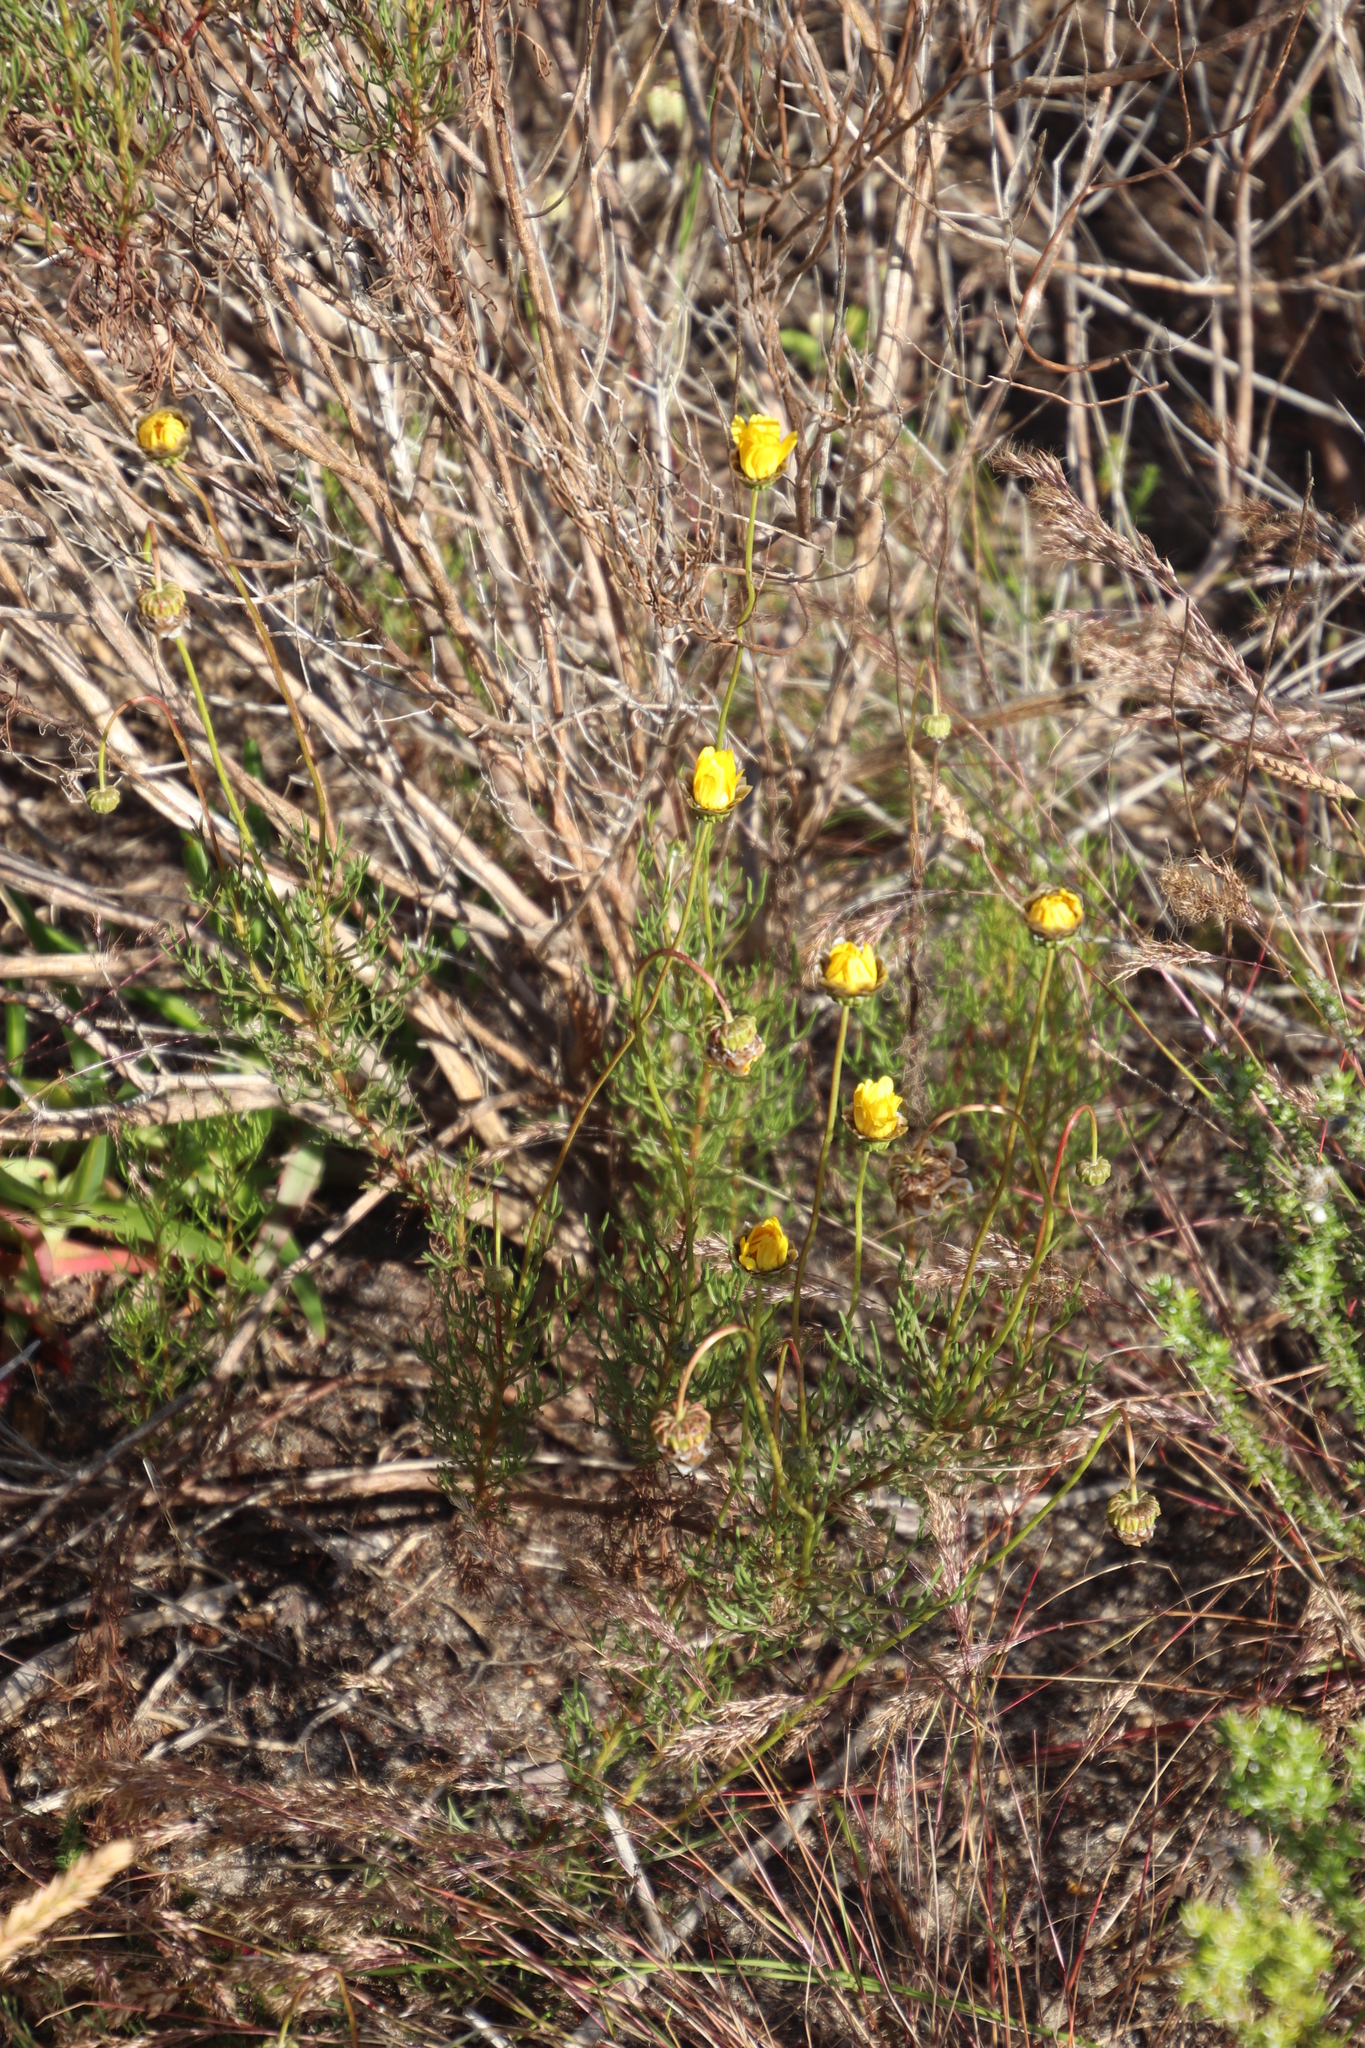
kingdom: Plantae
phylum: Tracheophyta
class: Magnoliopsida
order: Asterales
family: Asteraceae
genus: Ursinia
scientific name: Ursinia anthemoides
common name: Ursinia
